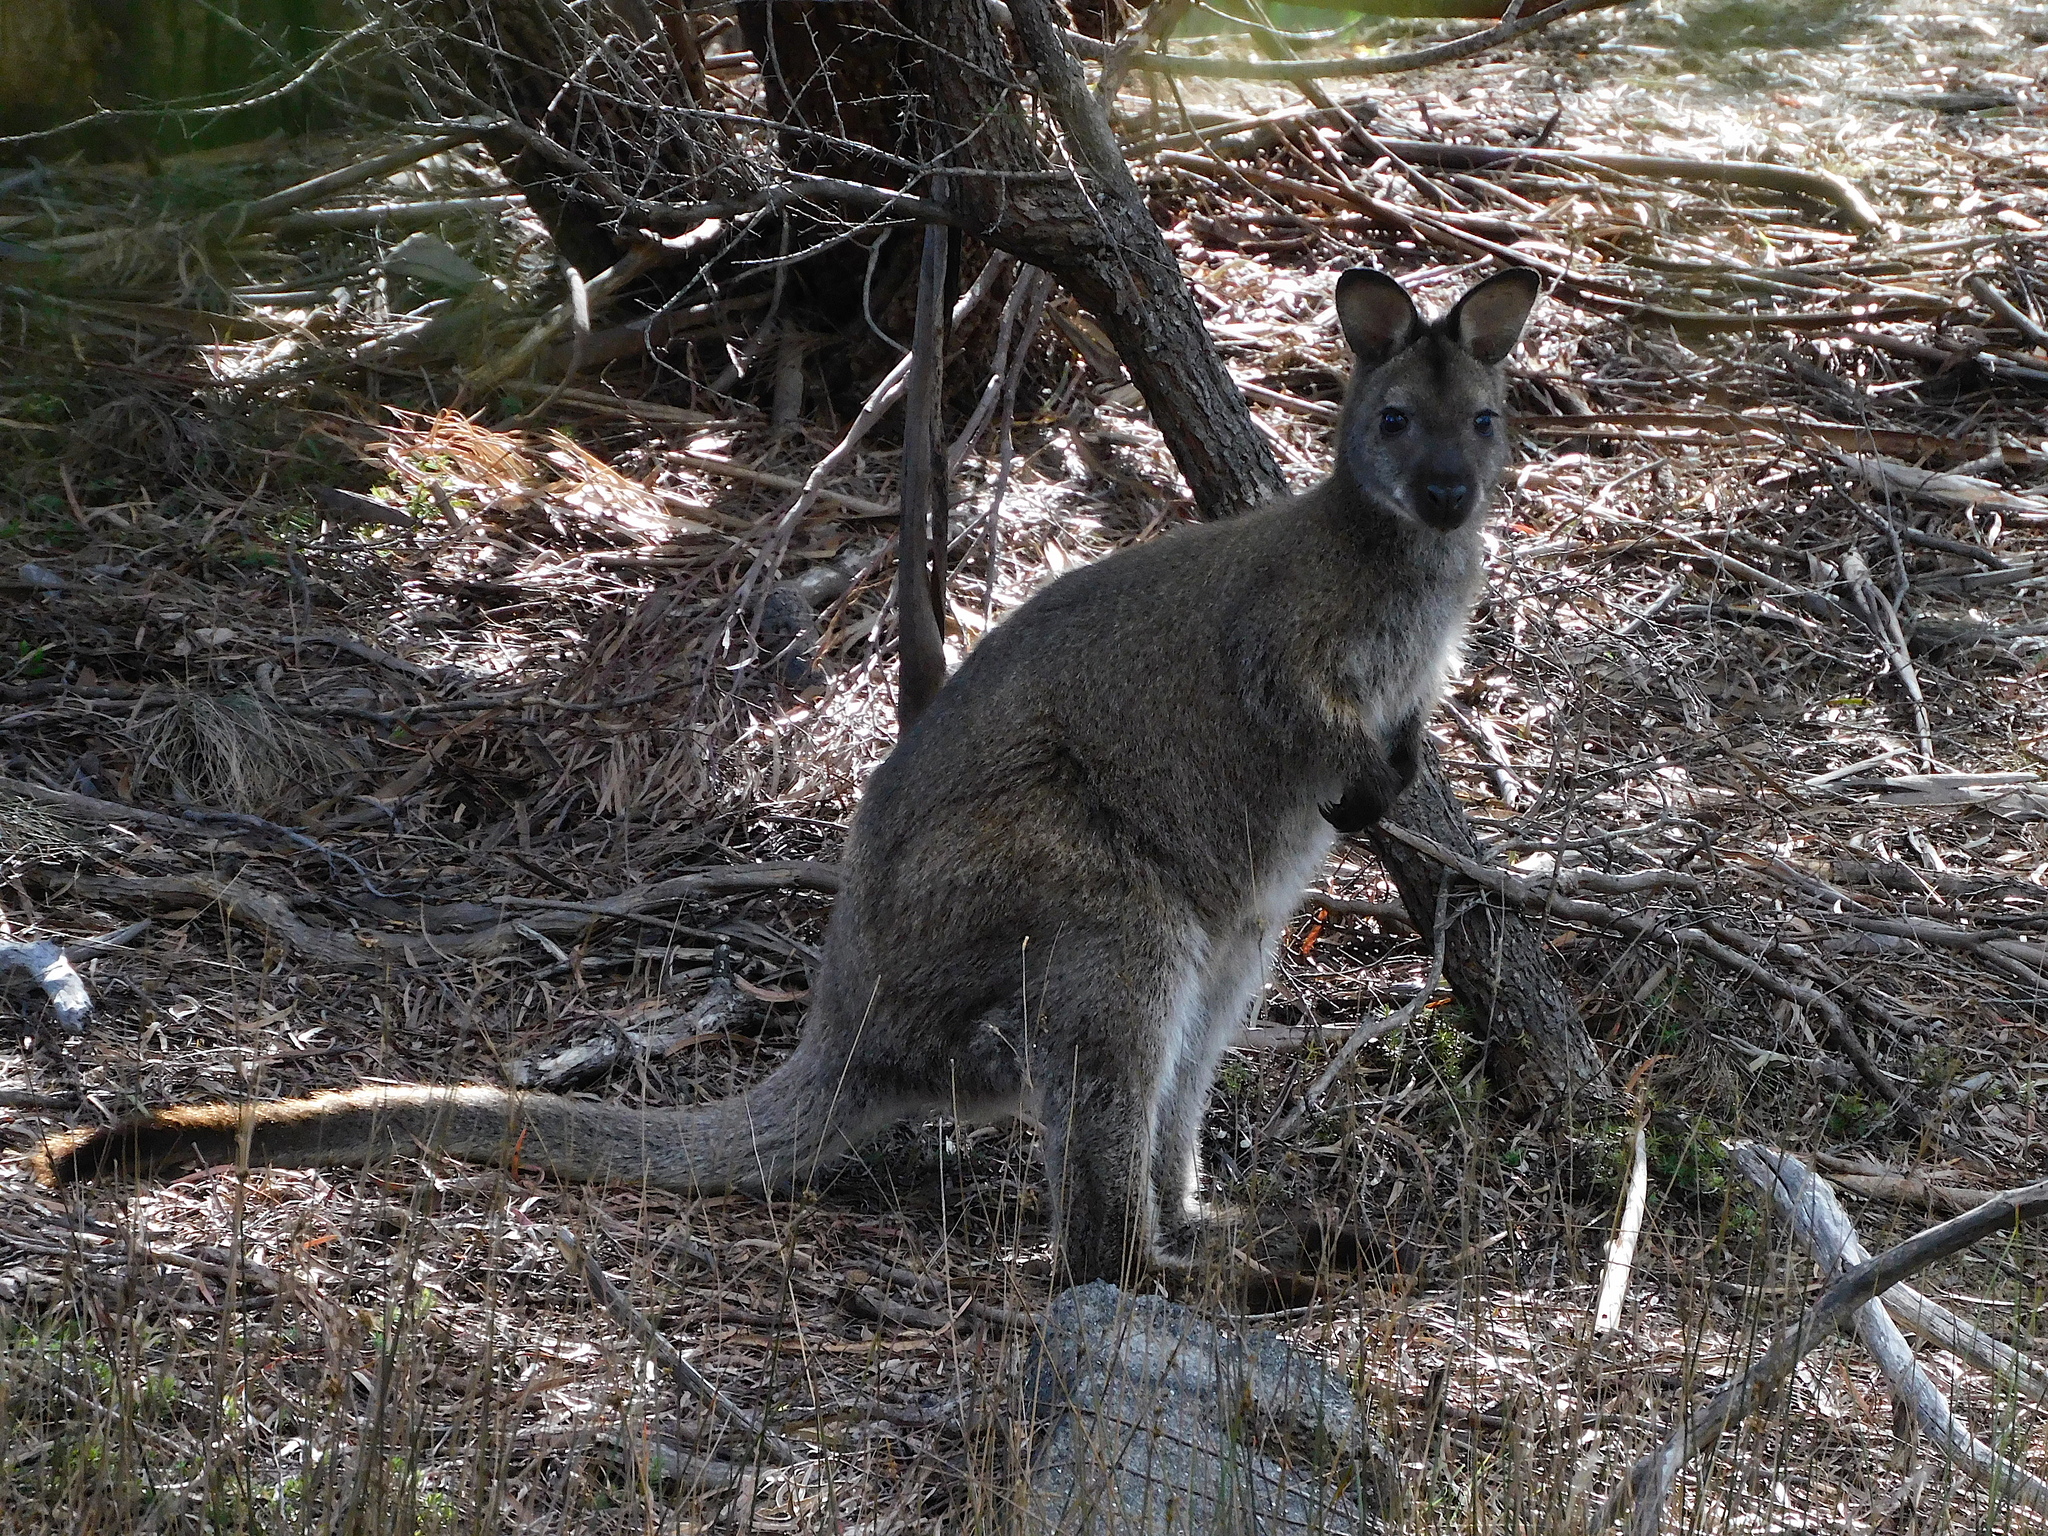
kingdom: Animalia
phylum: Chordata
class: Mammalia
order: Diprotodontia
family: Macropodidae
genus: Notamacropus
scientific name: Notamacropus rufogriseus
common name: Red-necked wallaby
